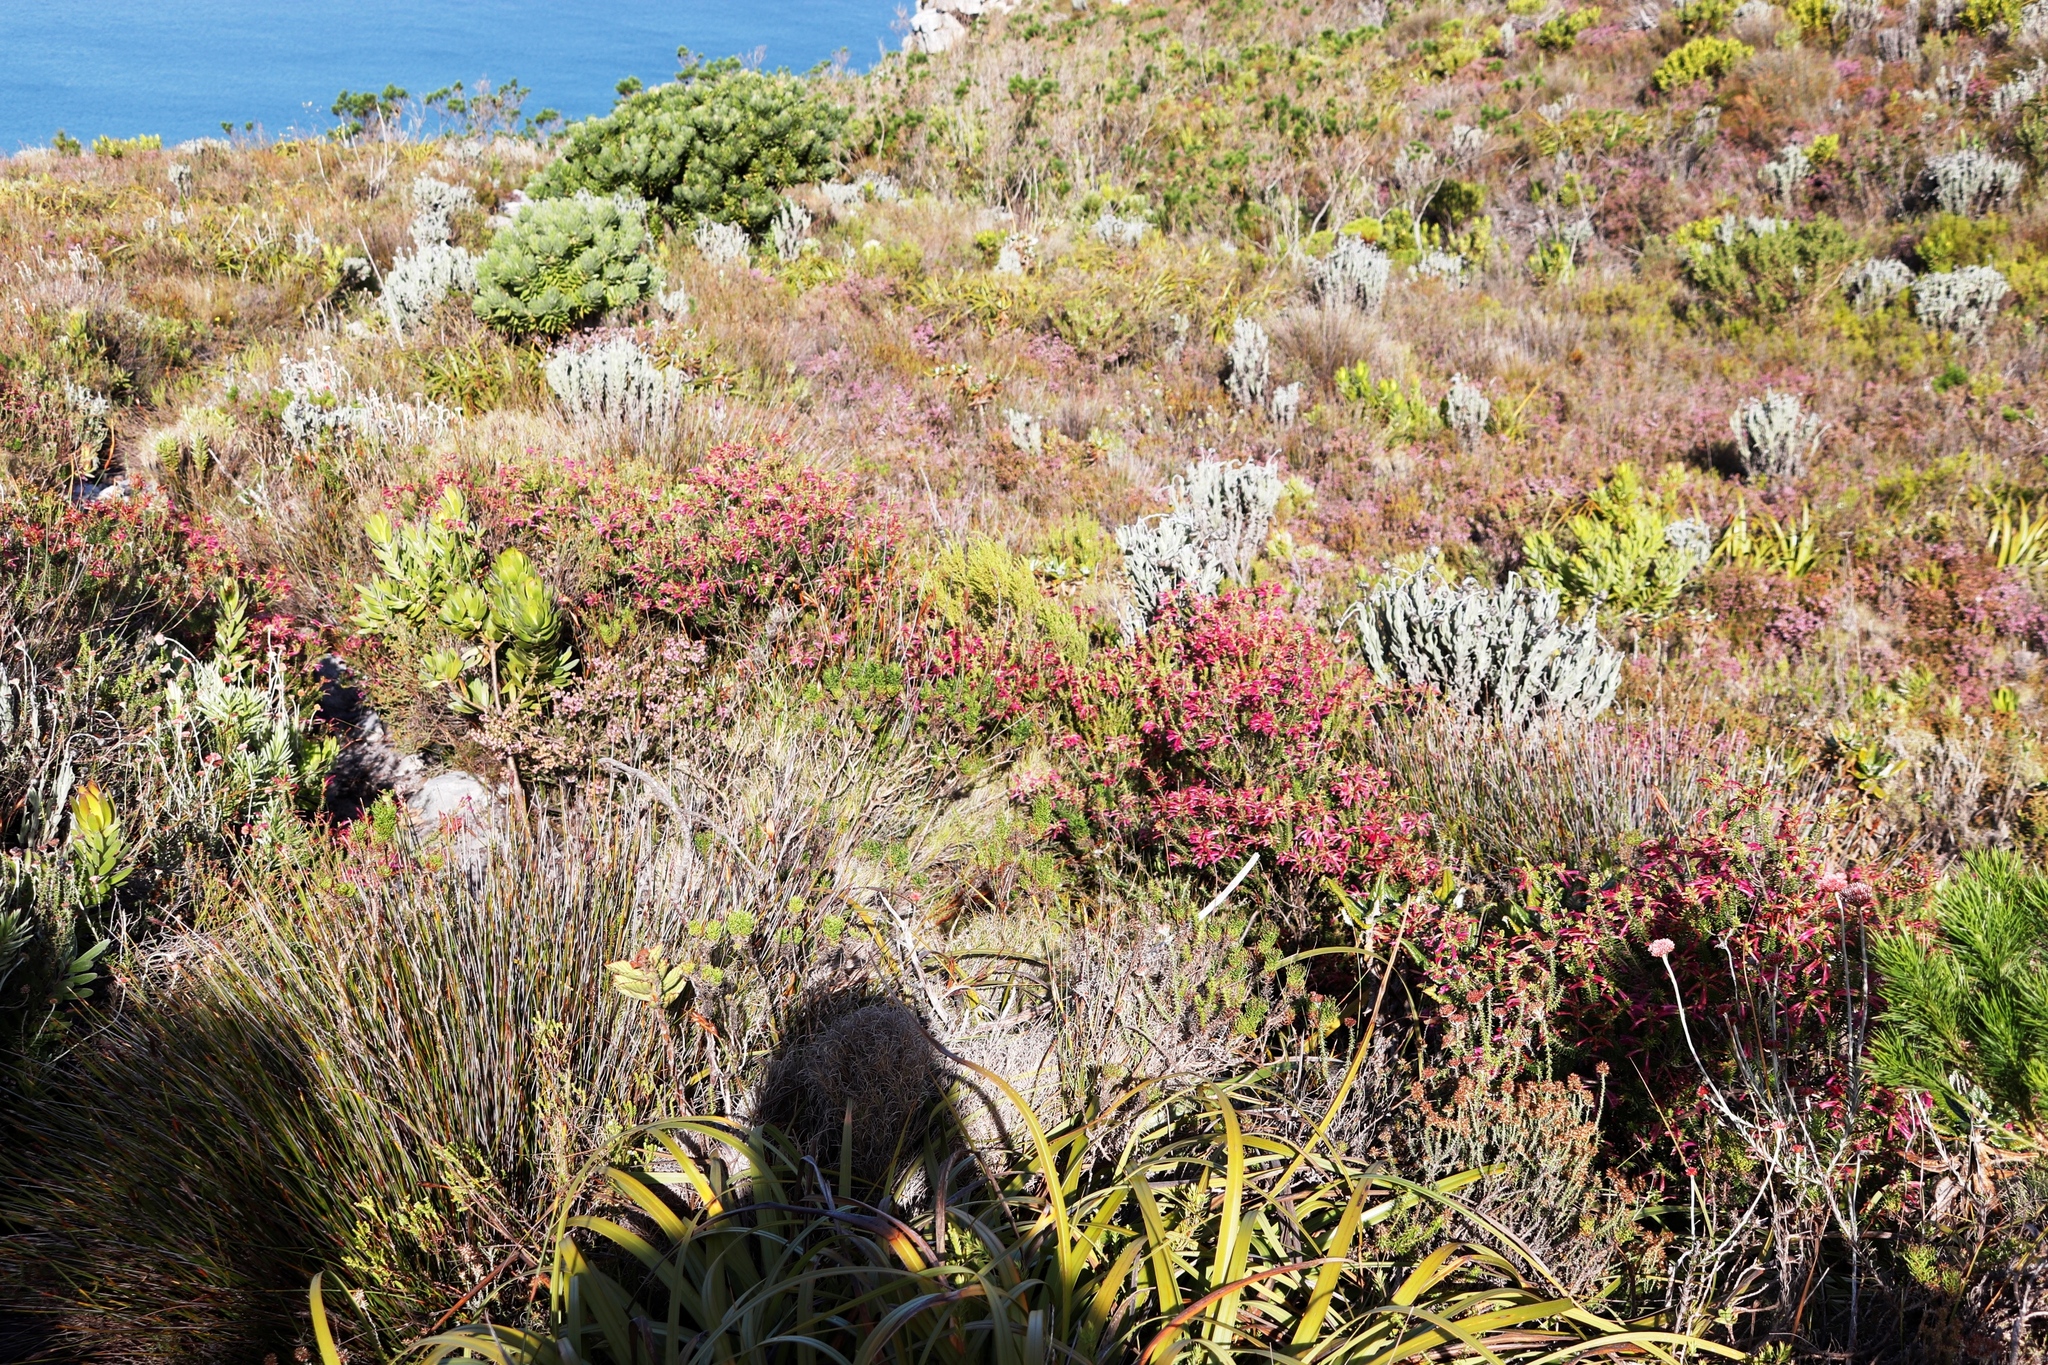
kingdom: Plantae
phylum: Tracheophyta
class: Magnoliopsida
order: Ericales
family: Ericaceae
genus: Erica
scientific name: Erica abietina
